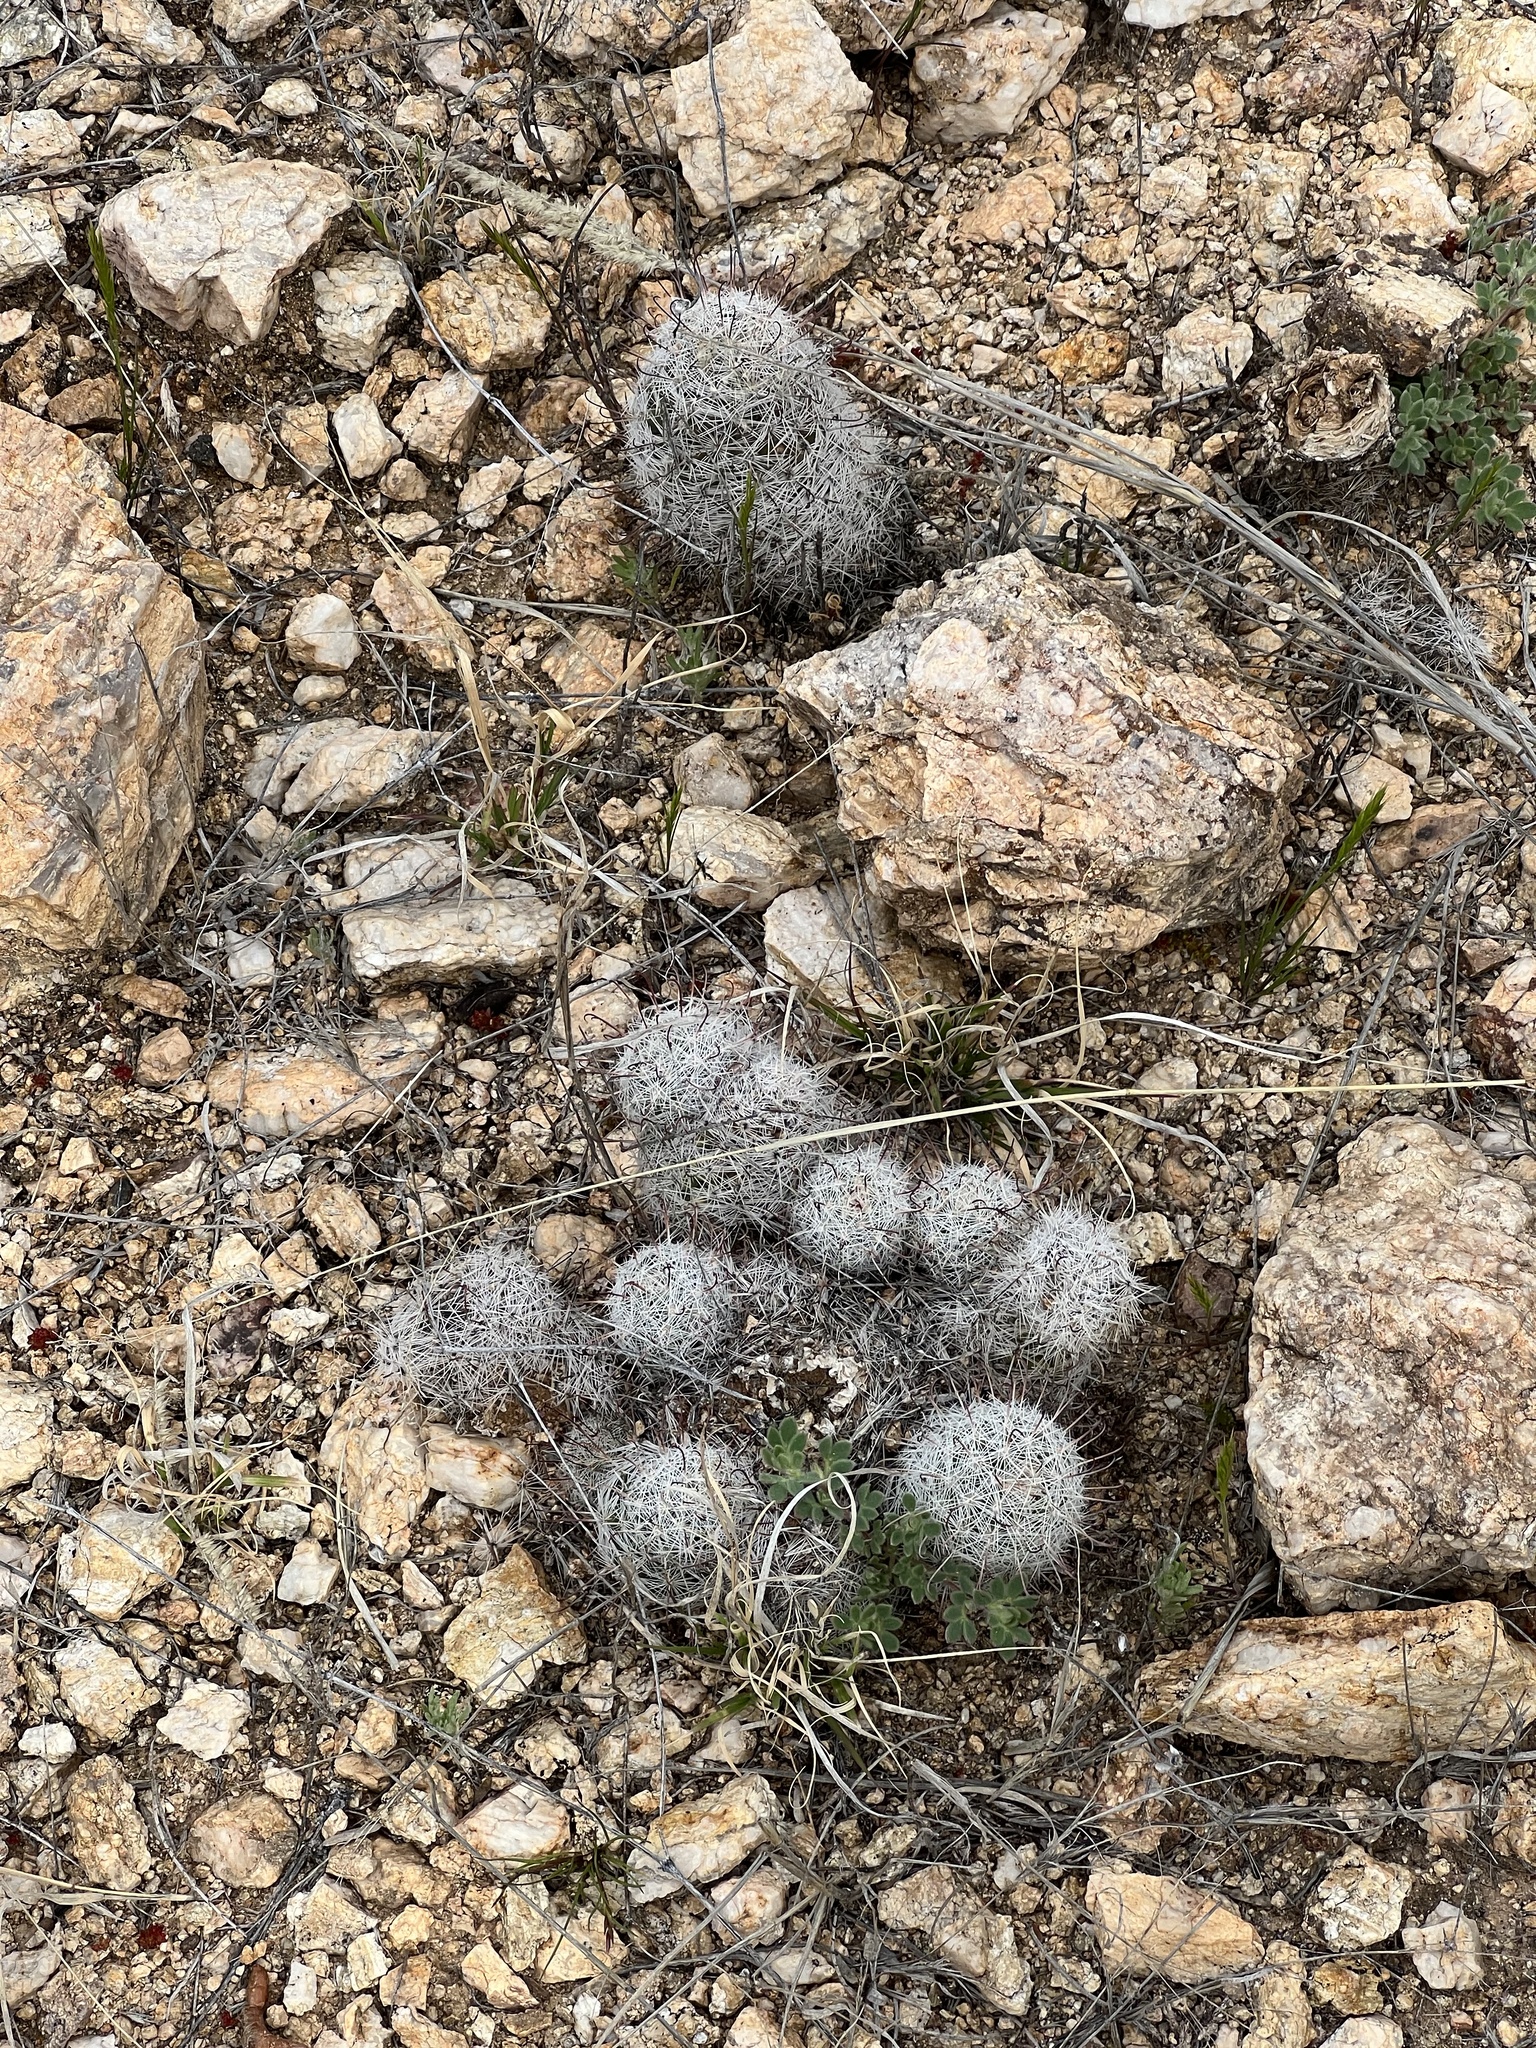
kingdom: Plantae
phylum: Tracheophyta
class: Magnoliopsida
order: Caryophyllales
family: Cactaceae
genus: Cochemiea
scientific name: Cochemiea grahamii
